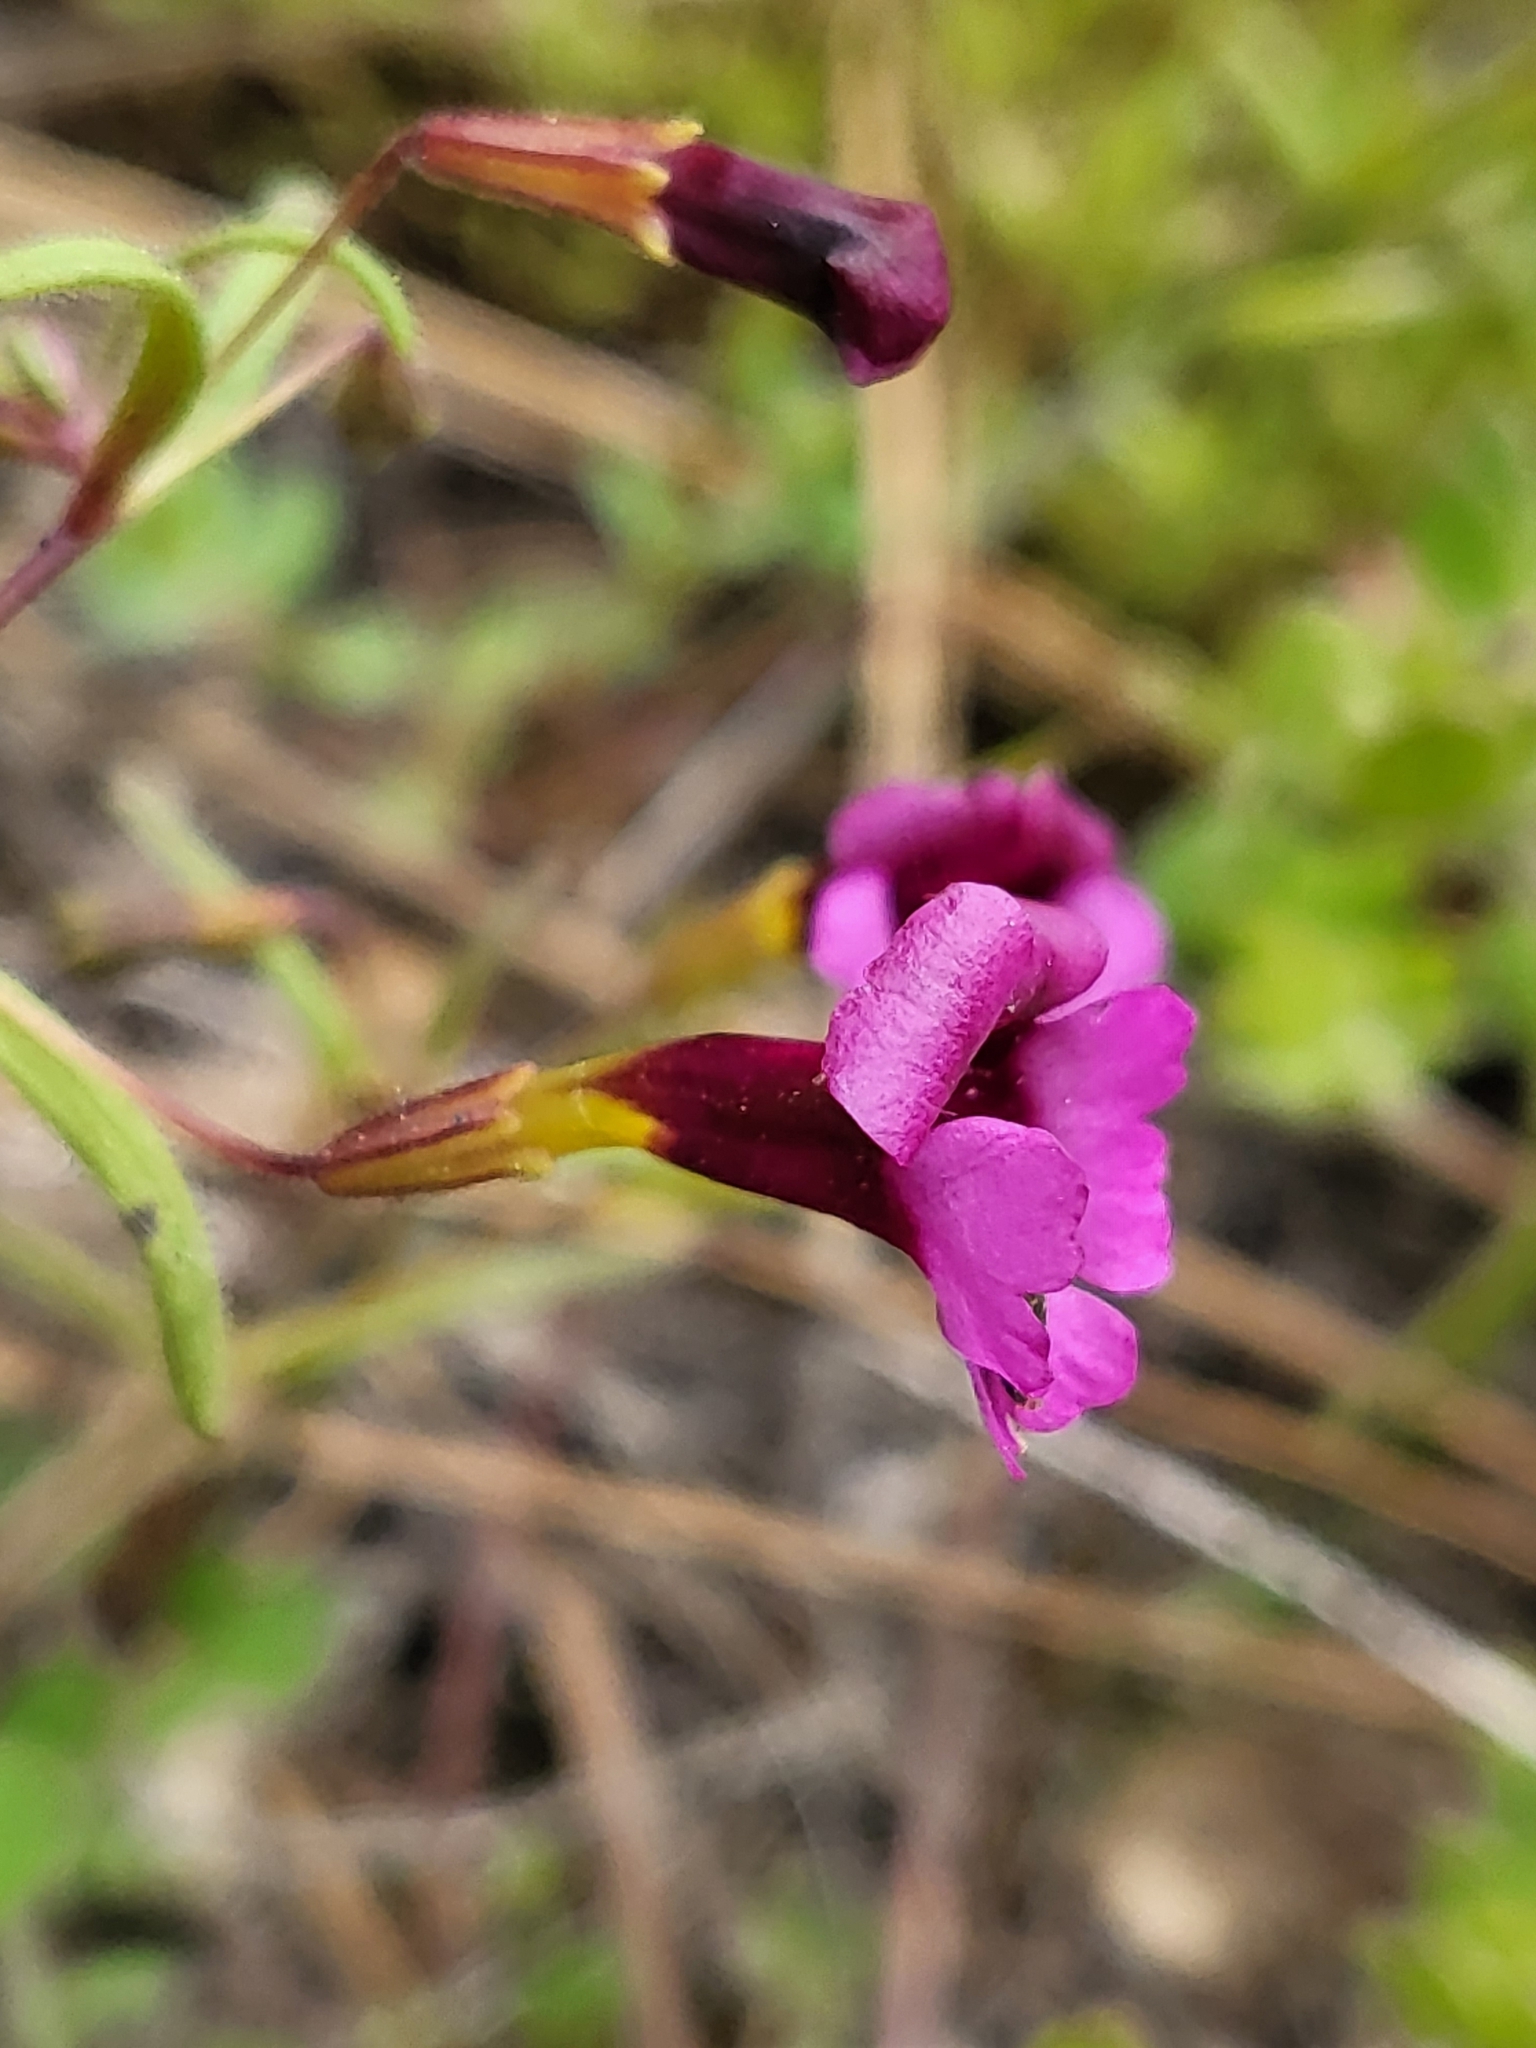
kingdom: Plantae
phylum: Tracheophyta
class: Magnoliopsida
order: Lamiales
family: Phrymaceae
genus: Erythranthe
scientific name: Erythranthe discolor
